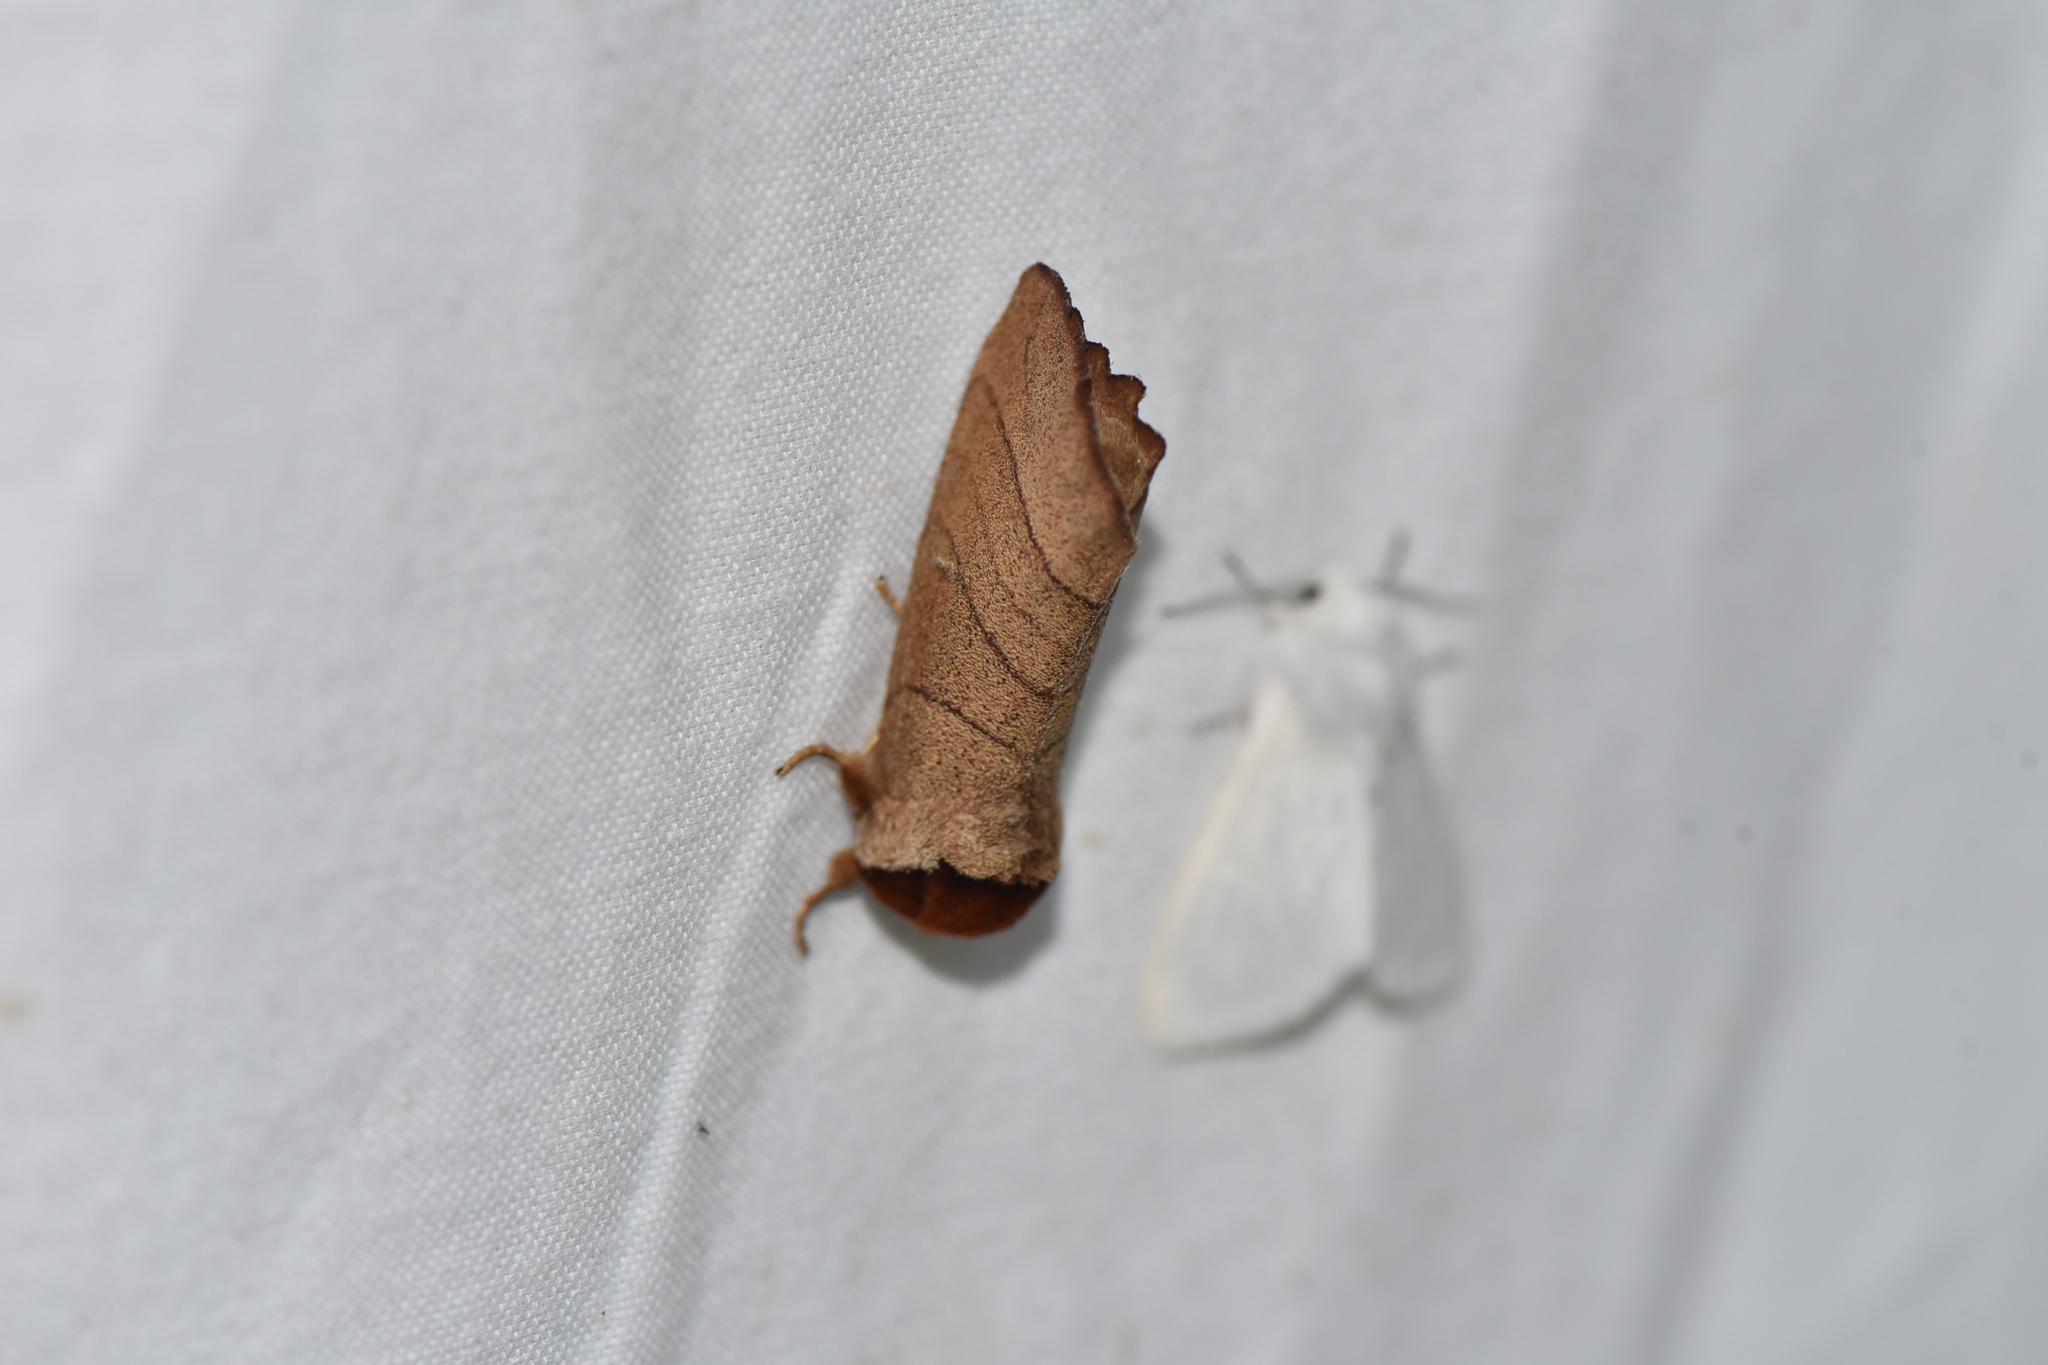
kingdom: Animalia
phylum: Arthropoda
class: Insecta
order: Lepidoptera
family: Notodontidae
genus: Datana
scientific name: Datana
